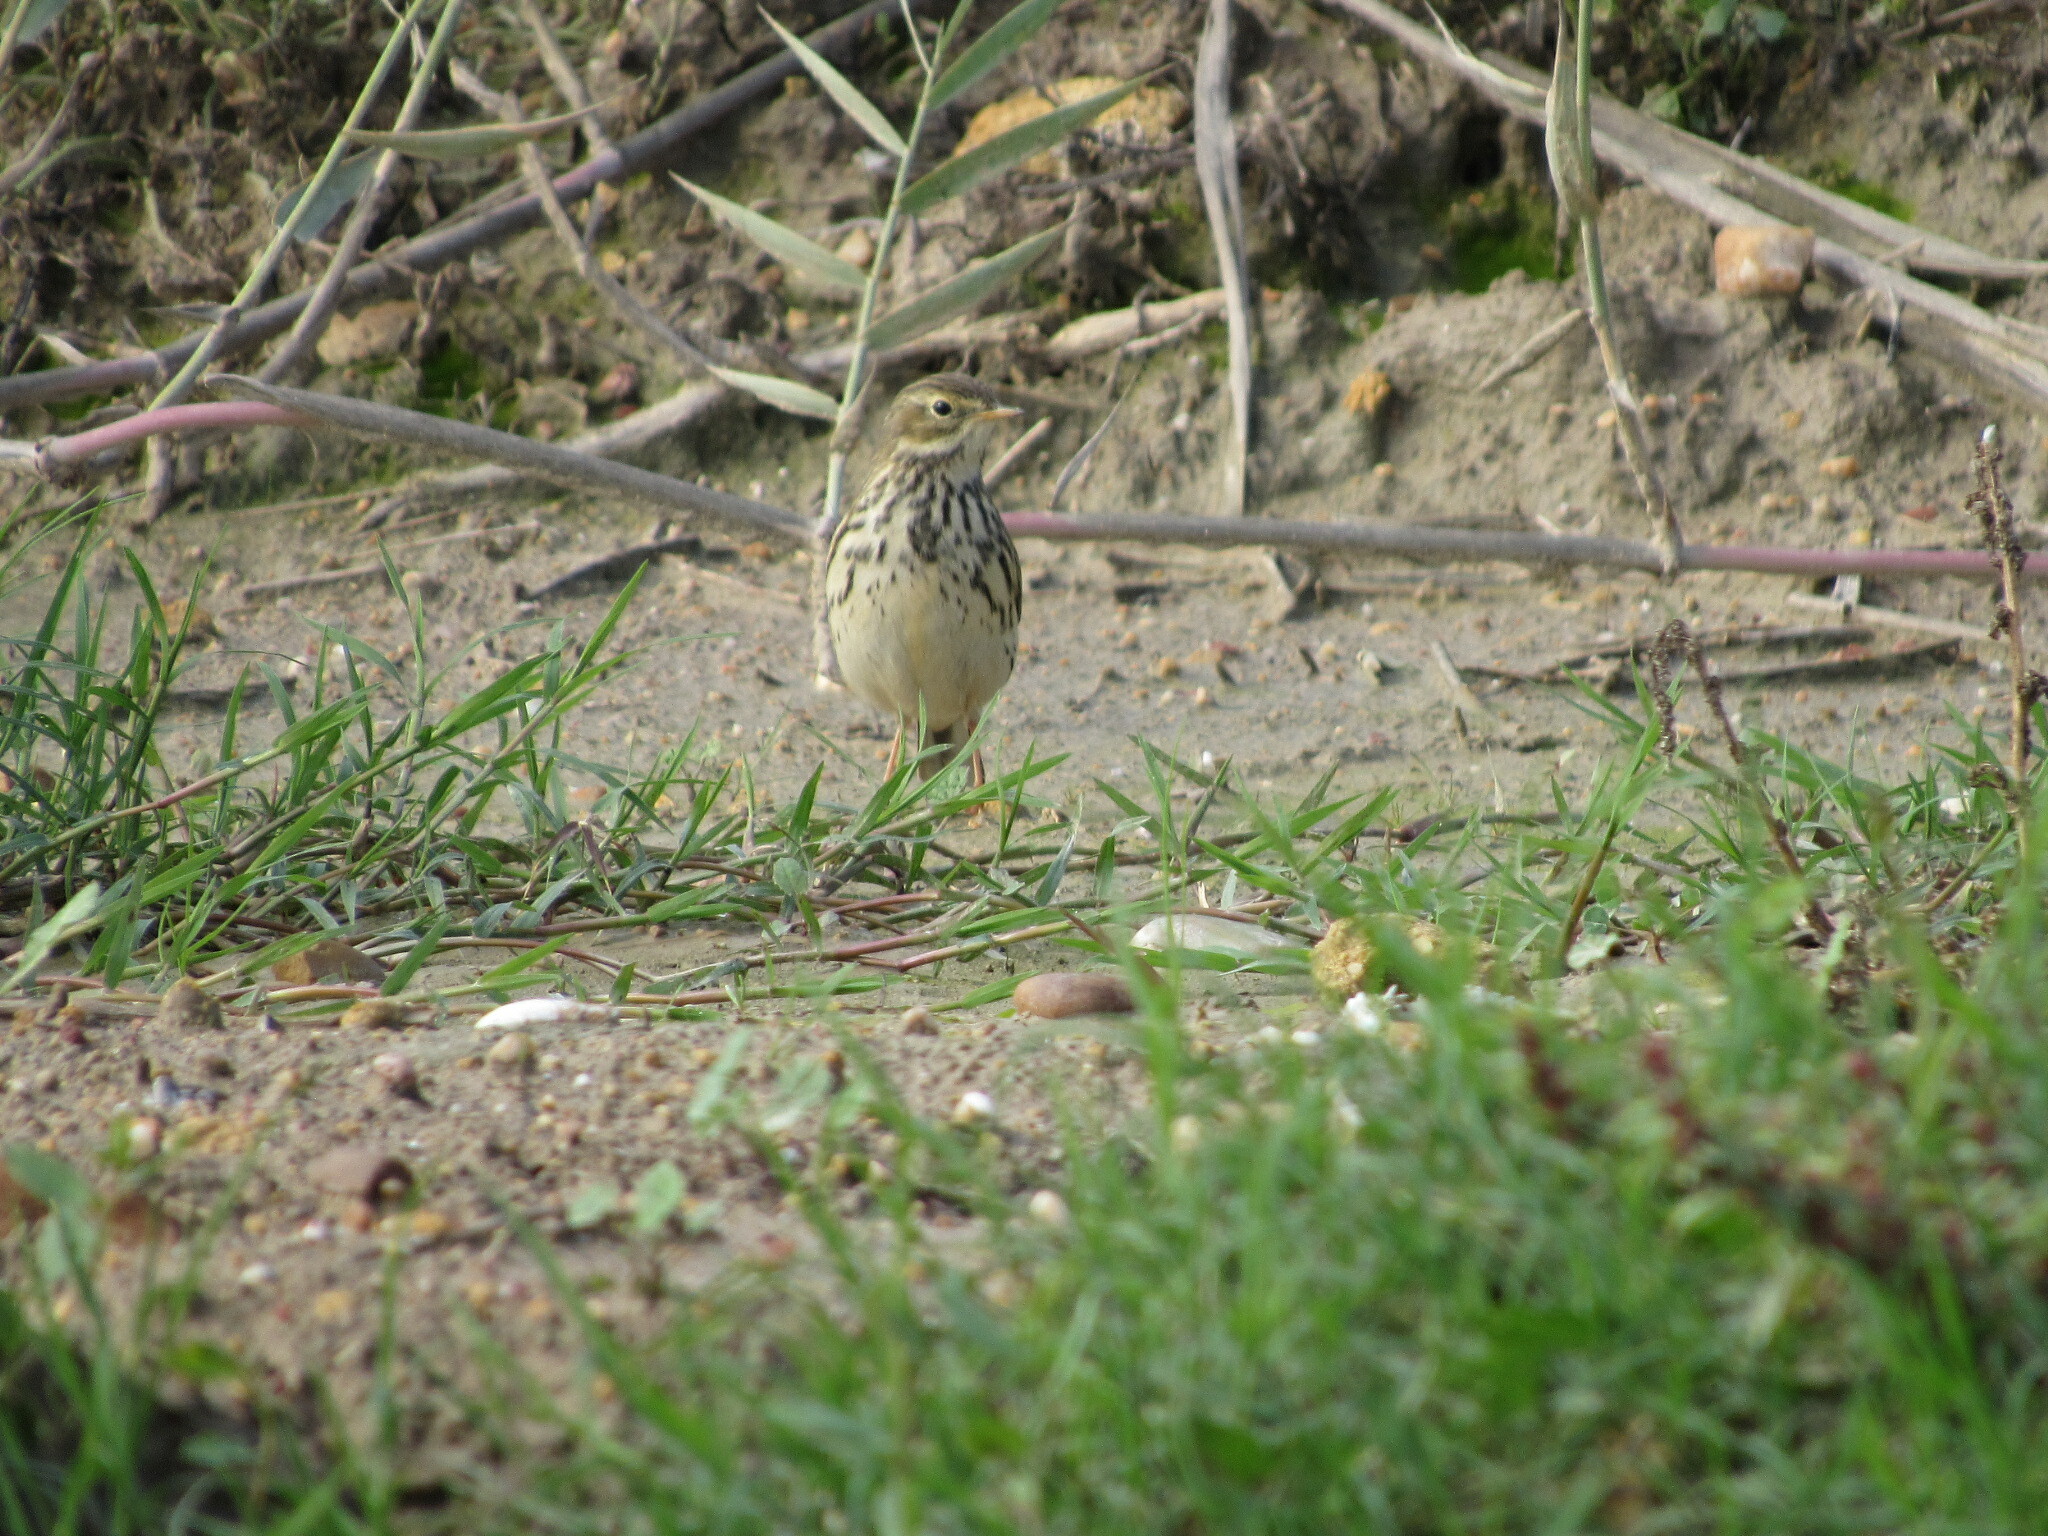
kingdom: Animalia
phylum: Chordata
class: Aves
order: Passeriformes
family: Motacillidae
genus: Anthus
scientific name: Anthus pratensis
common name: Meadow pipit
